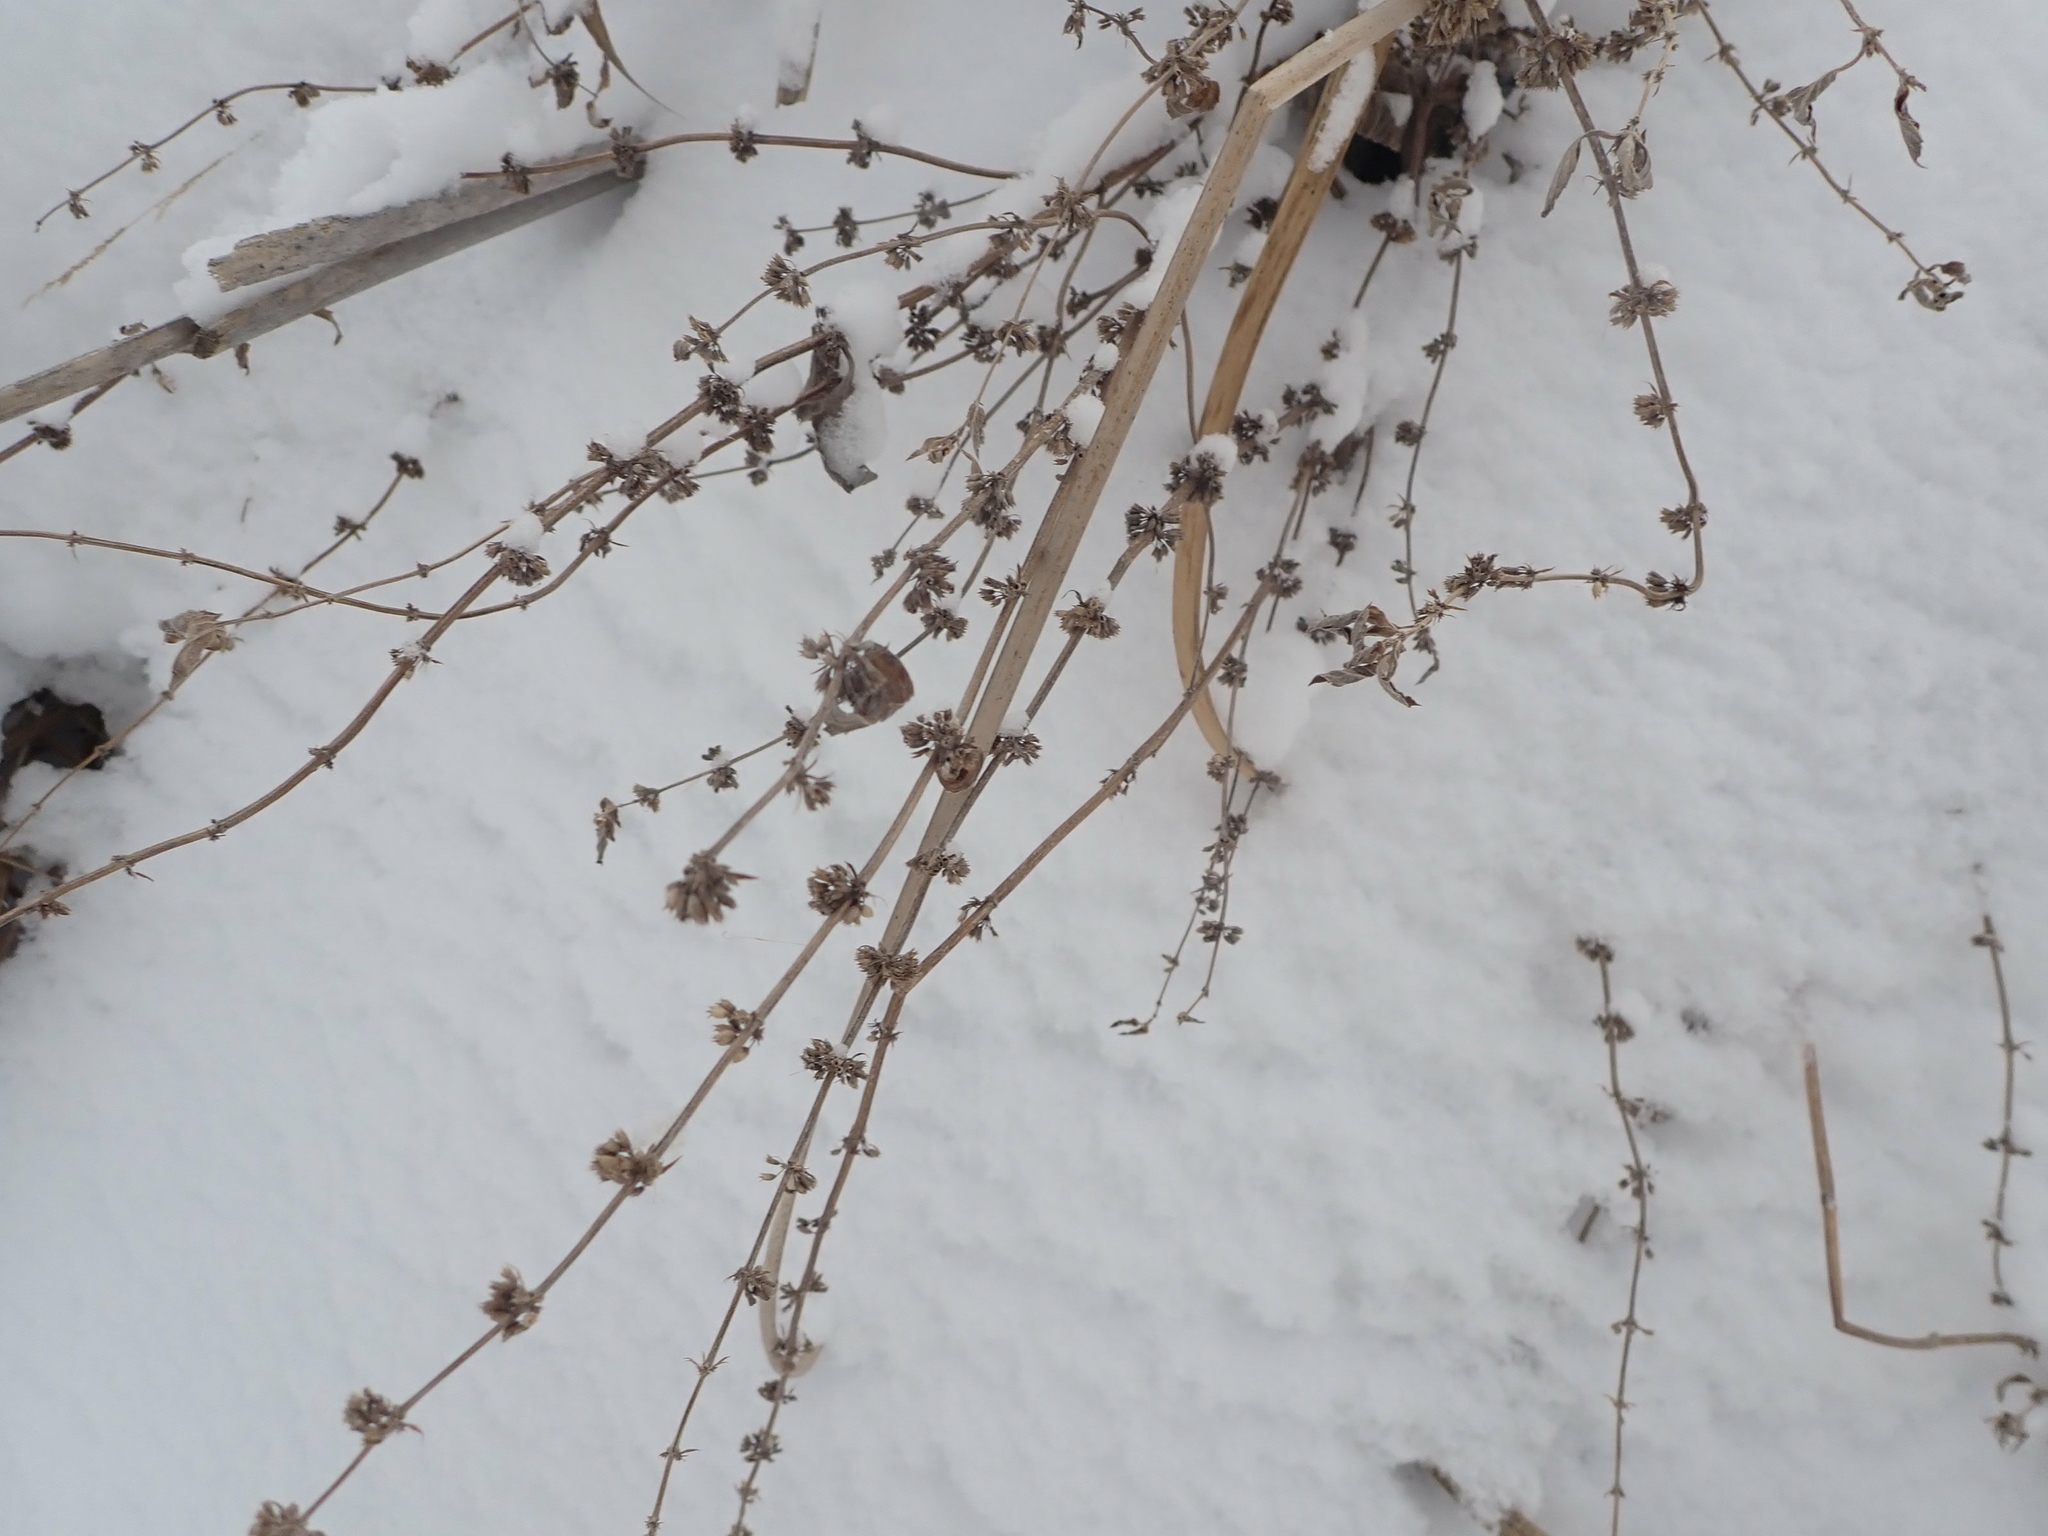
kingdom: Plantae
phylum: Tracheophyta
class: Magnoliopsida
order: Lamiales
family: Lamiaceae
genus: Mentha
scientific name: Mentha canadensis
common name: American corn mint
